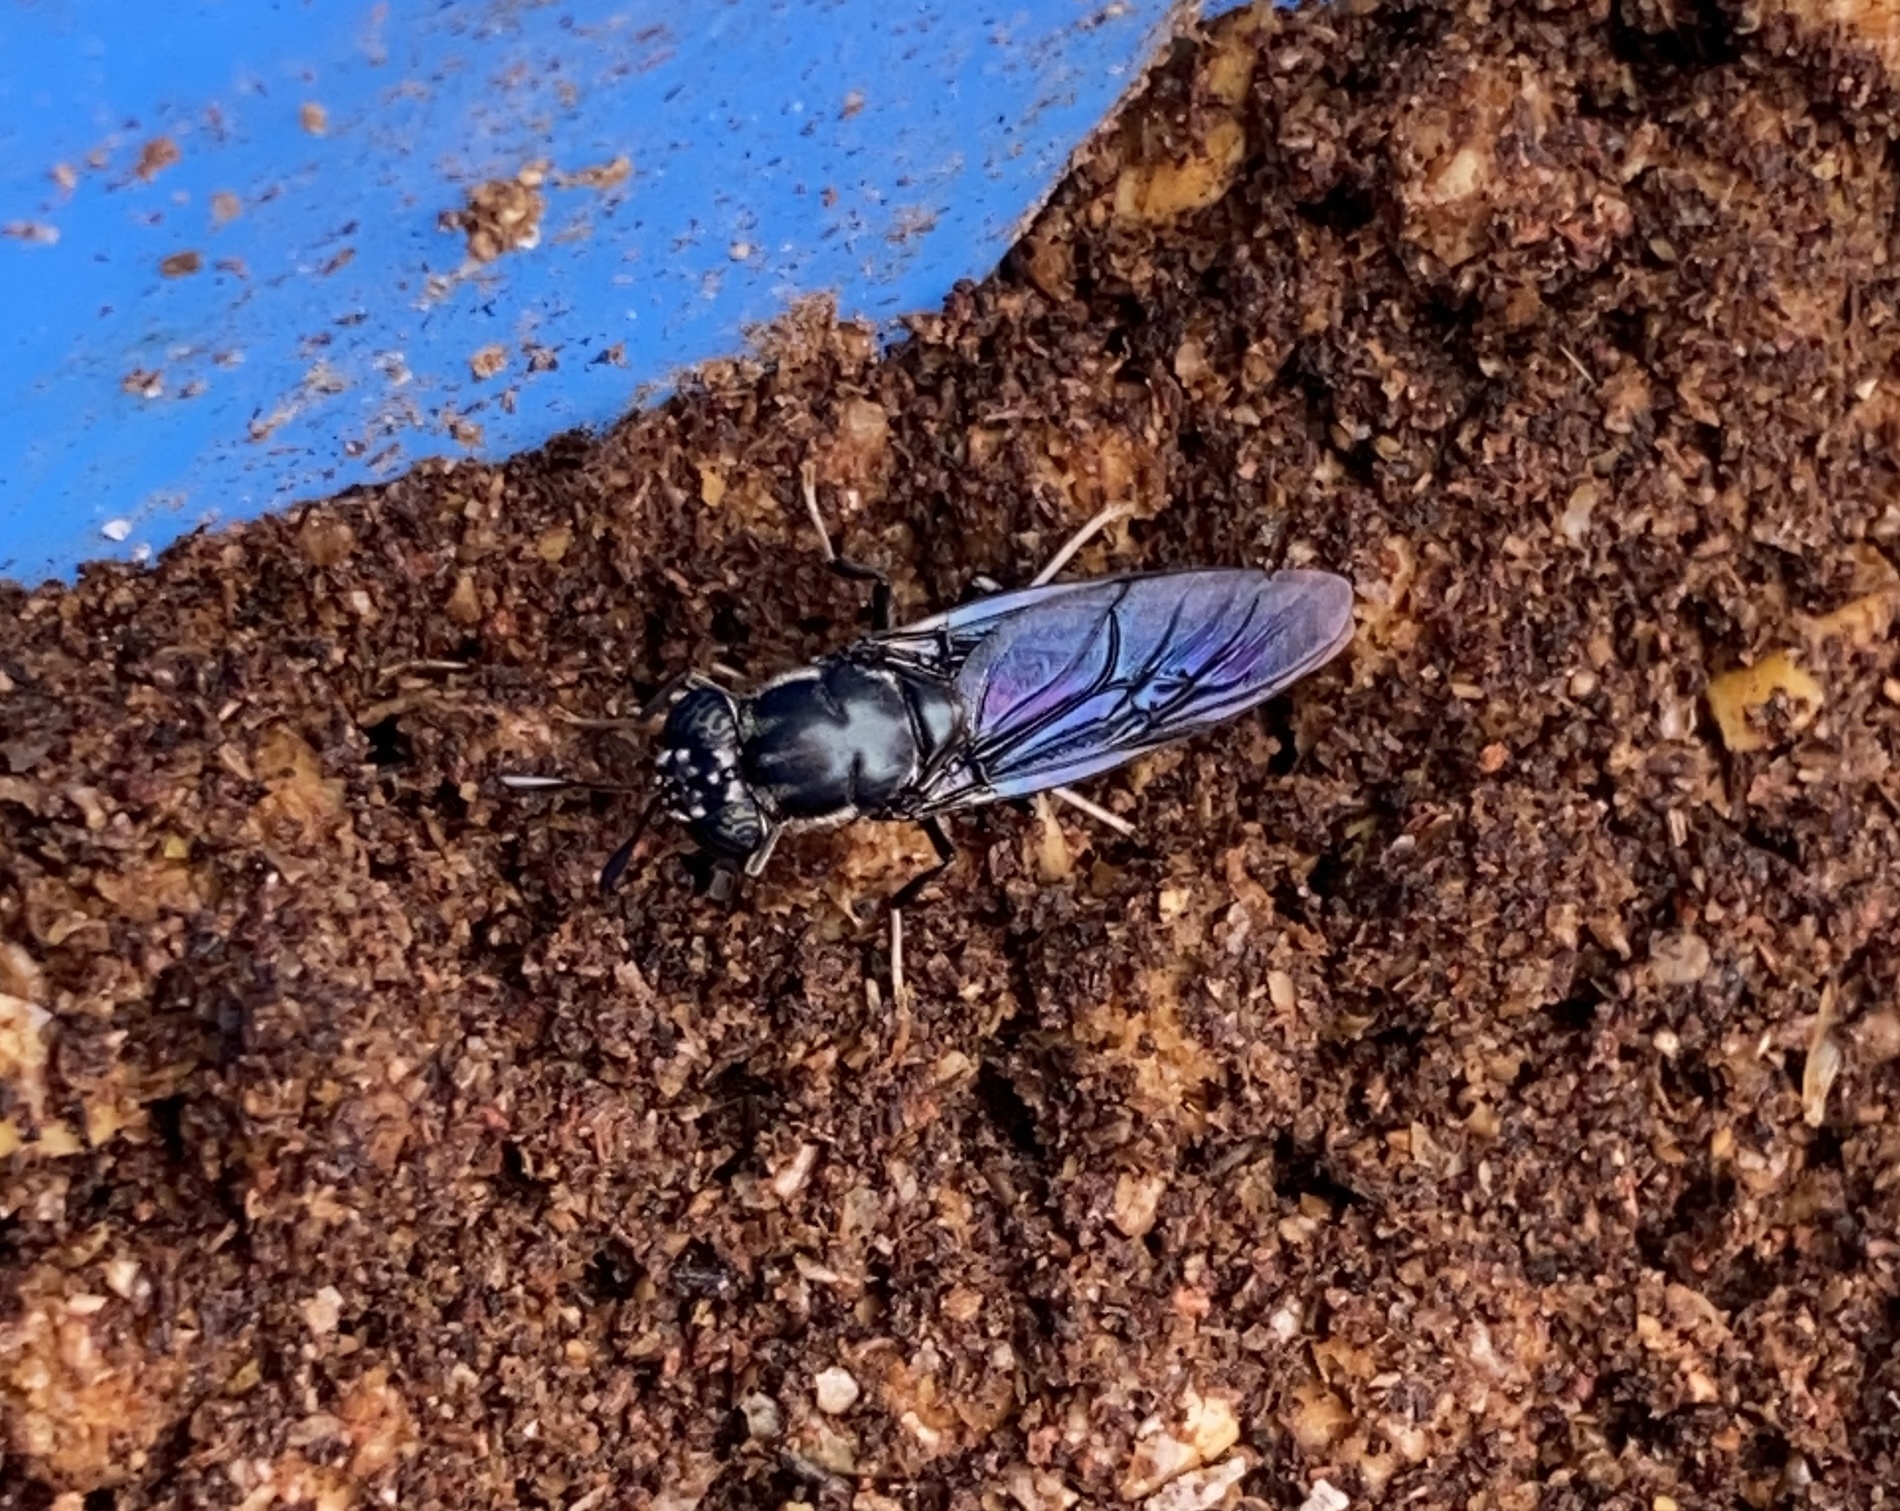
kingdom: Animalia
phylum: Arthropoda
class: Insecta
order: Diptera
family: Stratiomyidae
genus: Hermetia
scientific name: Hermetia illucens
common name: Black soldier fly
